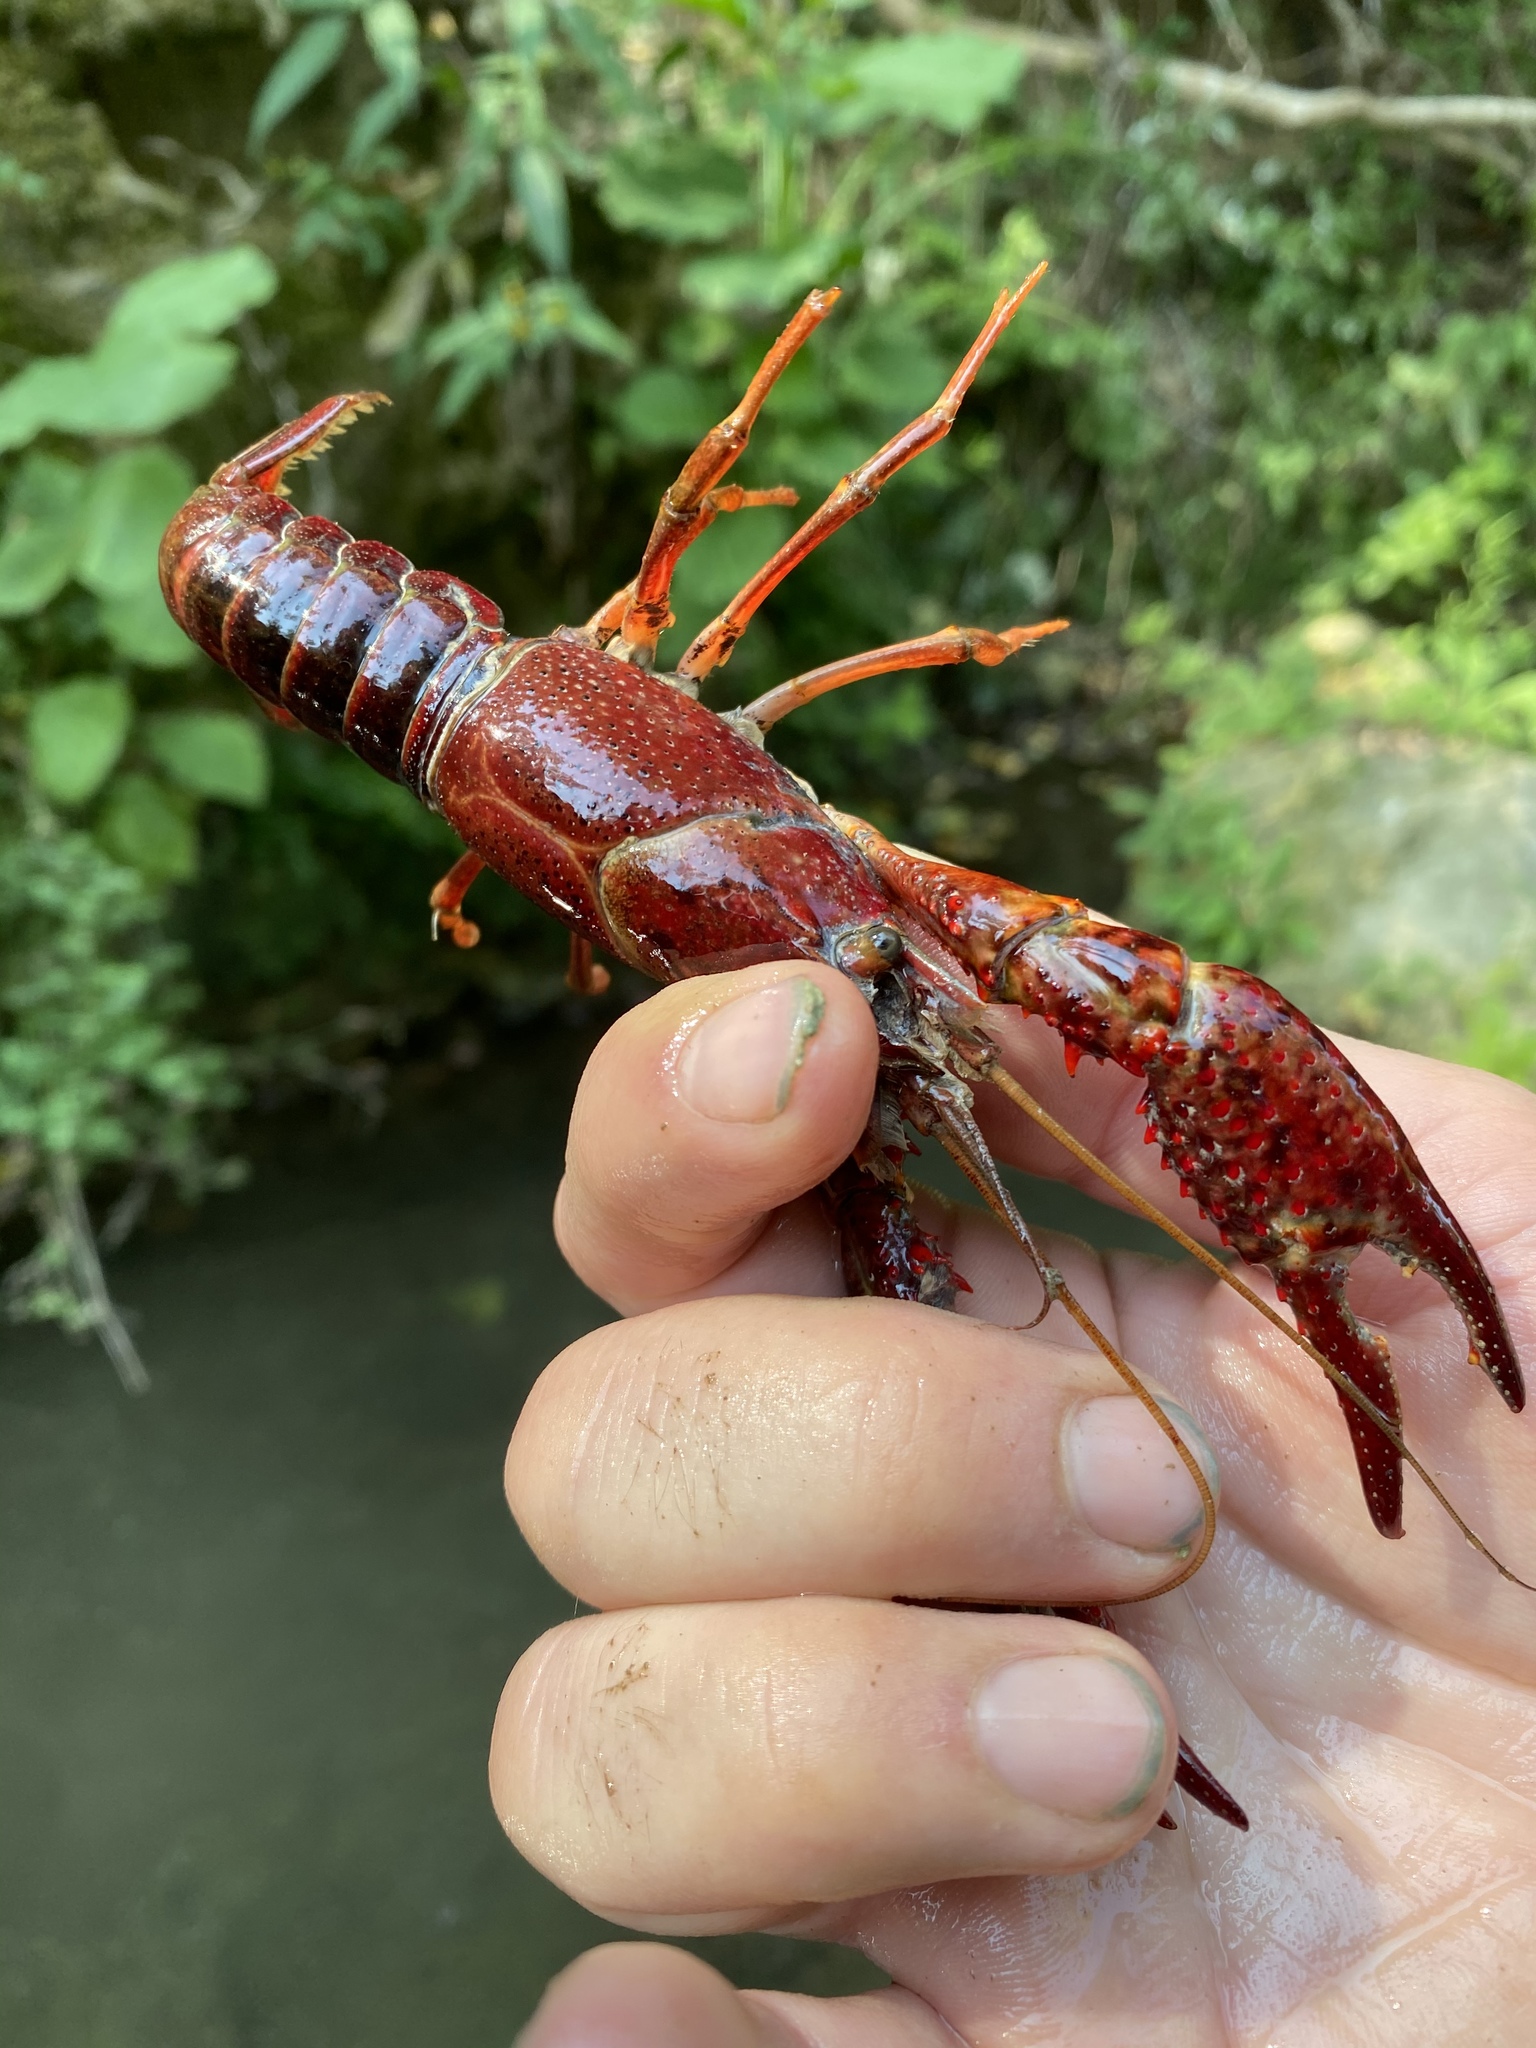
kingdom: Animalia
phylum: Arthropoda
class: Malacostraca
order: Decapoda
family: Cambaridae
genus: Procambarus
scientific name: Procambarus clarkii
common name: Red swamp crayfish
